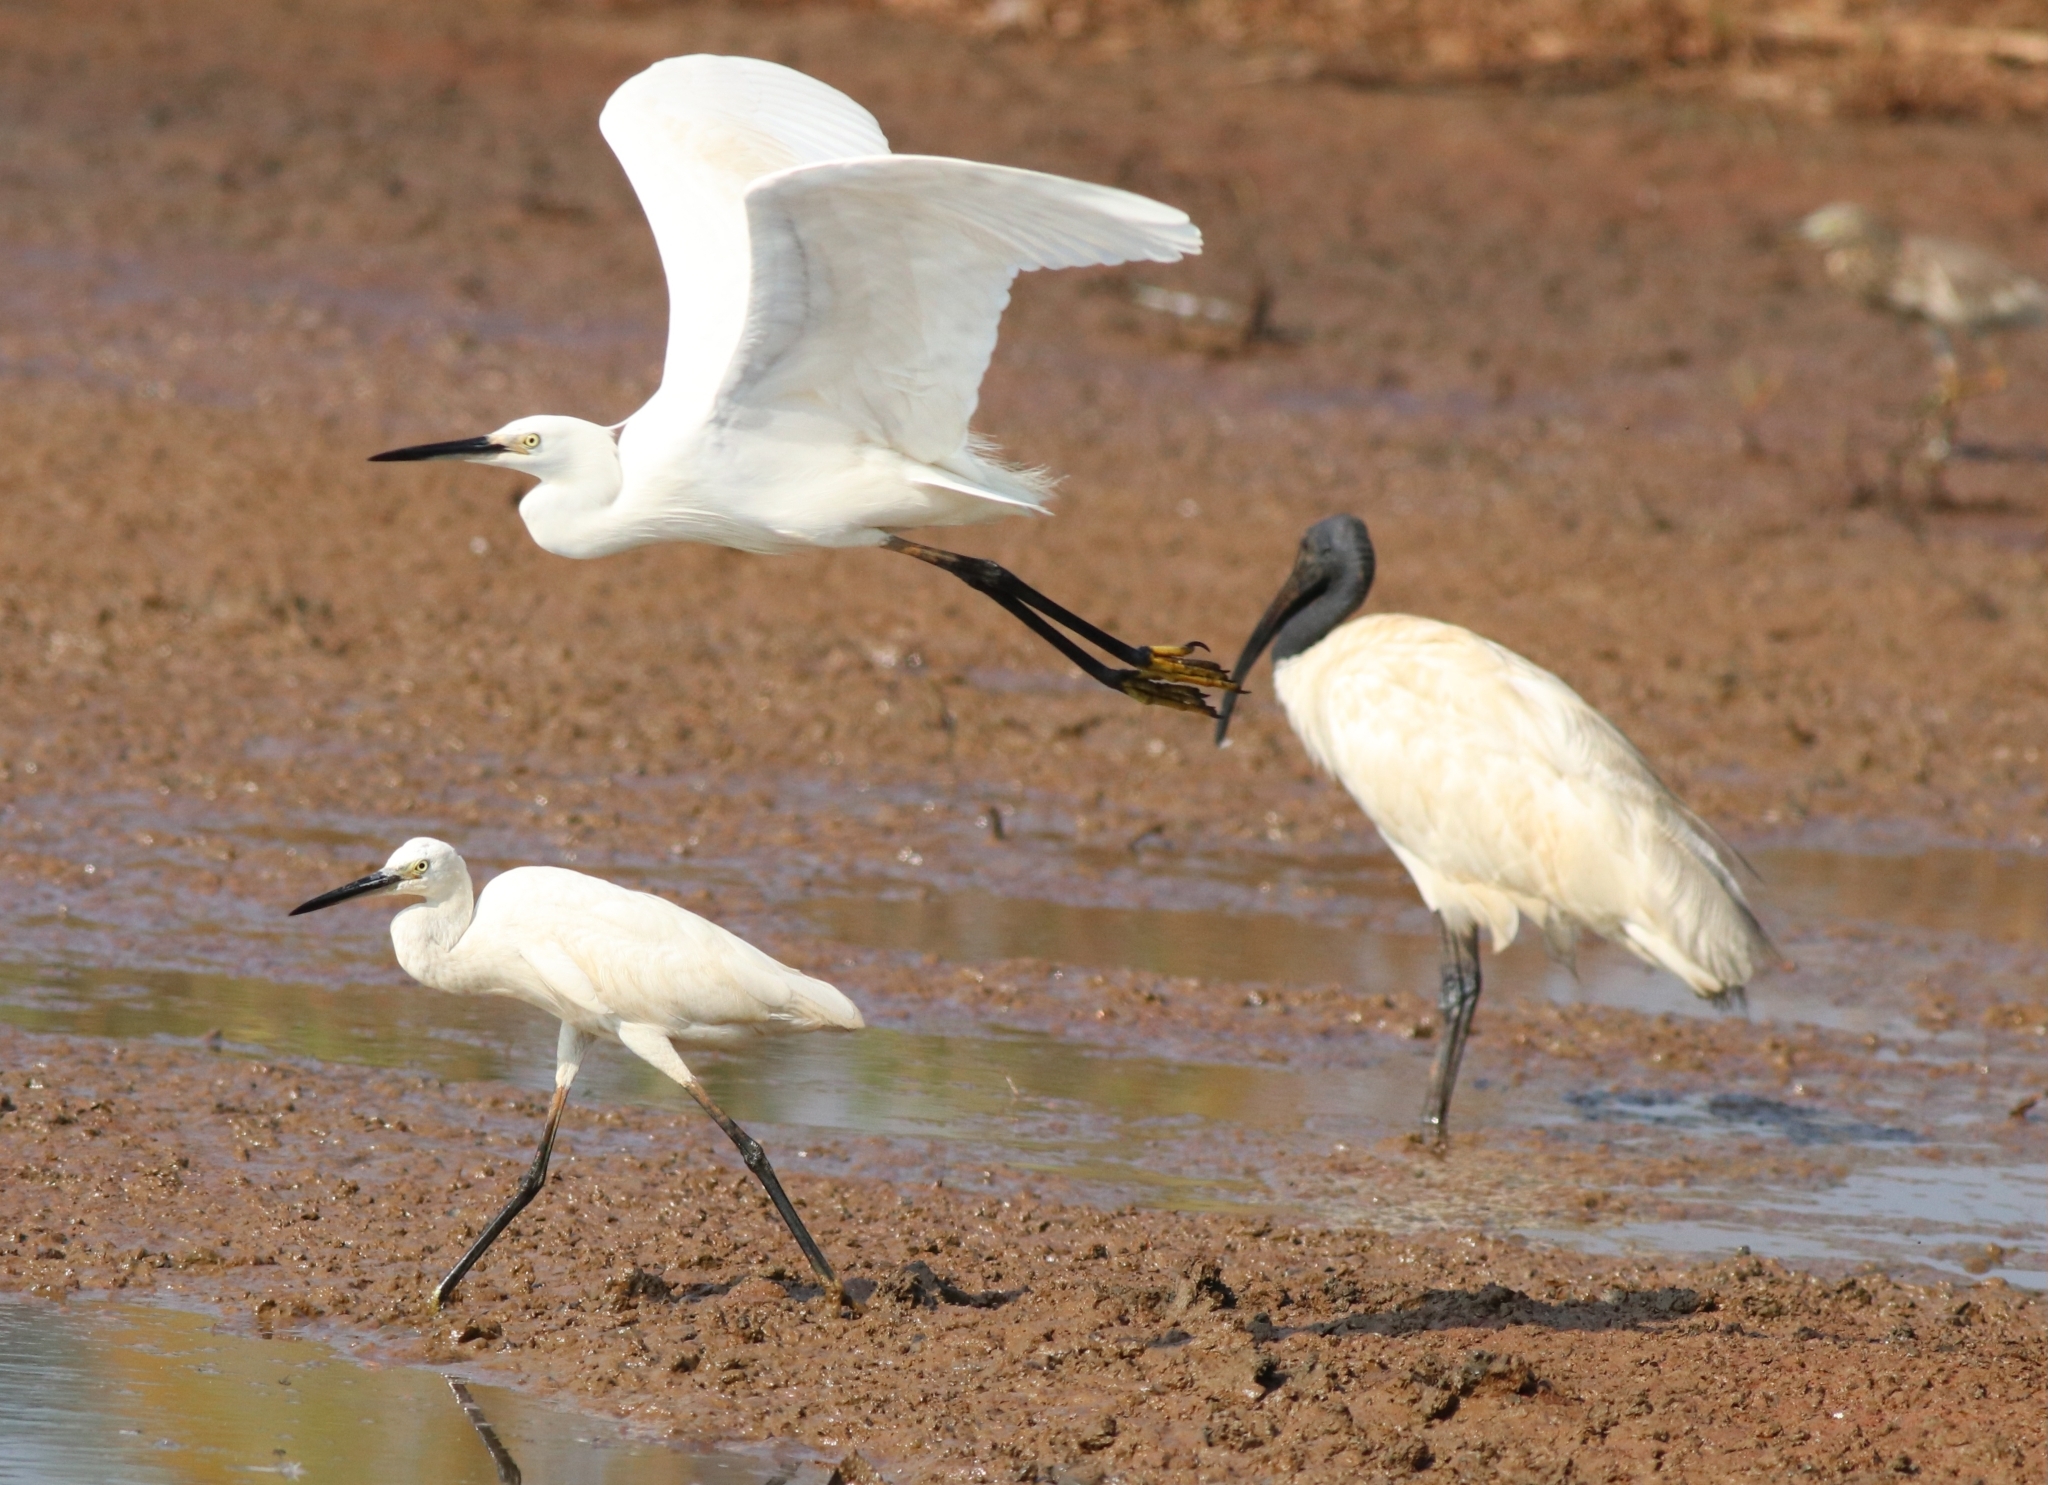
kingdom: Animalia
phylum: Chordata
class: Aves
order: Pelecaniformes
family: Ardeidae
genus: Egretta
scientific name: Egretta garzetta
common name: Little egret
